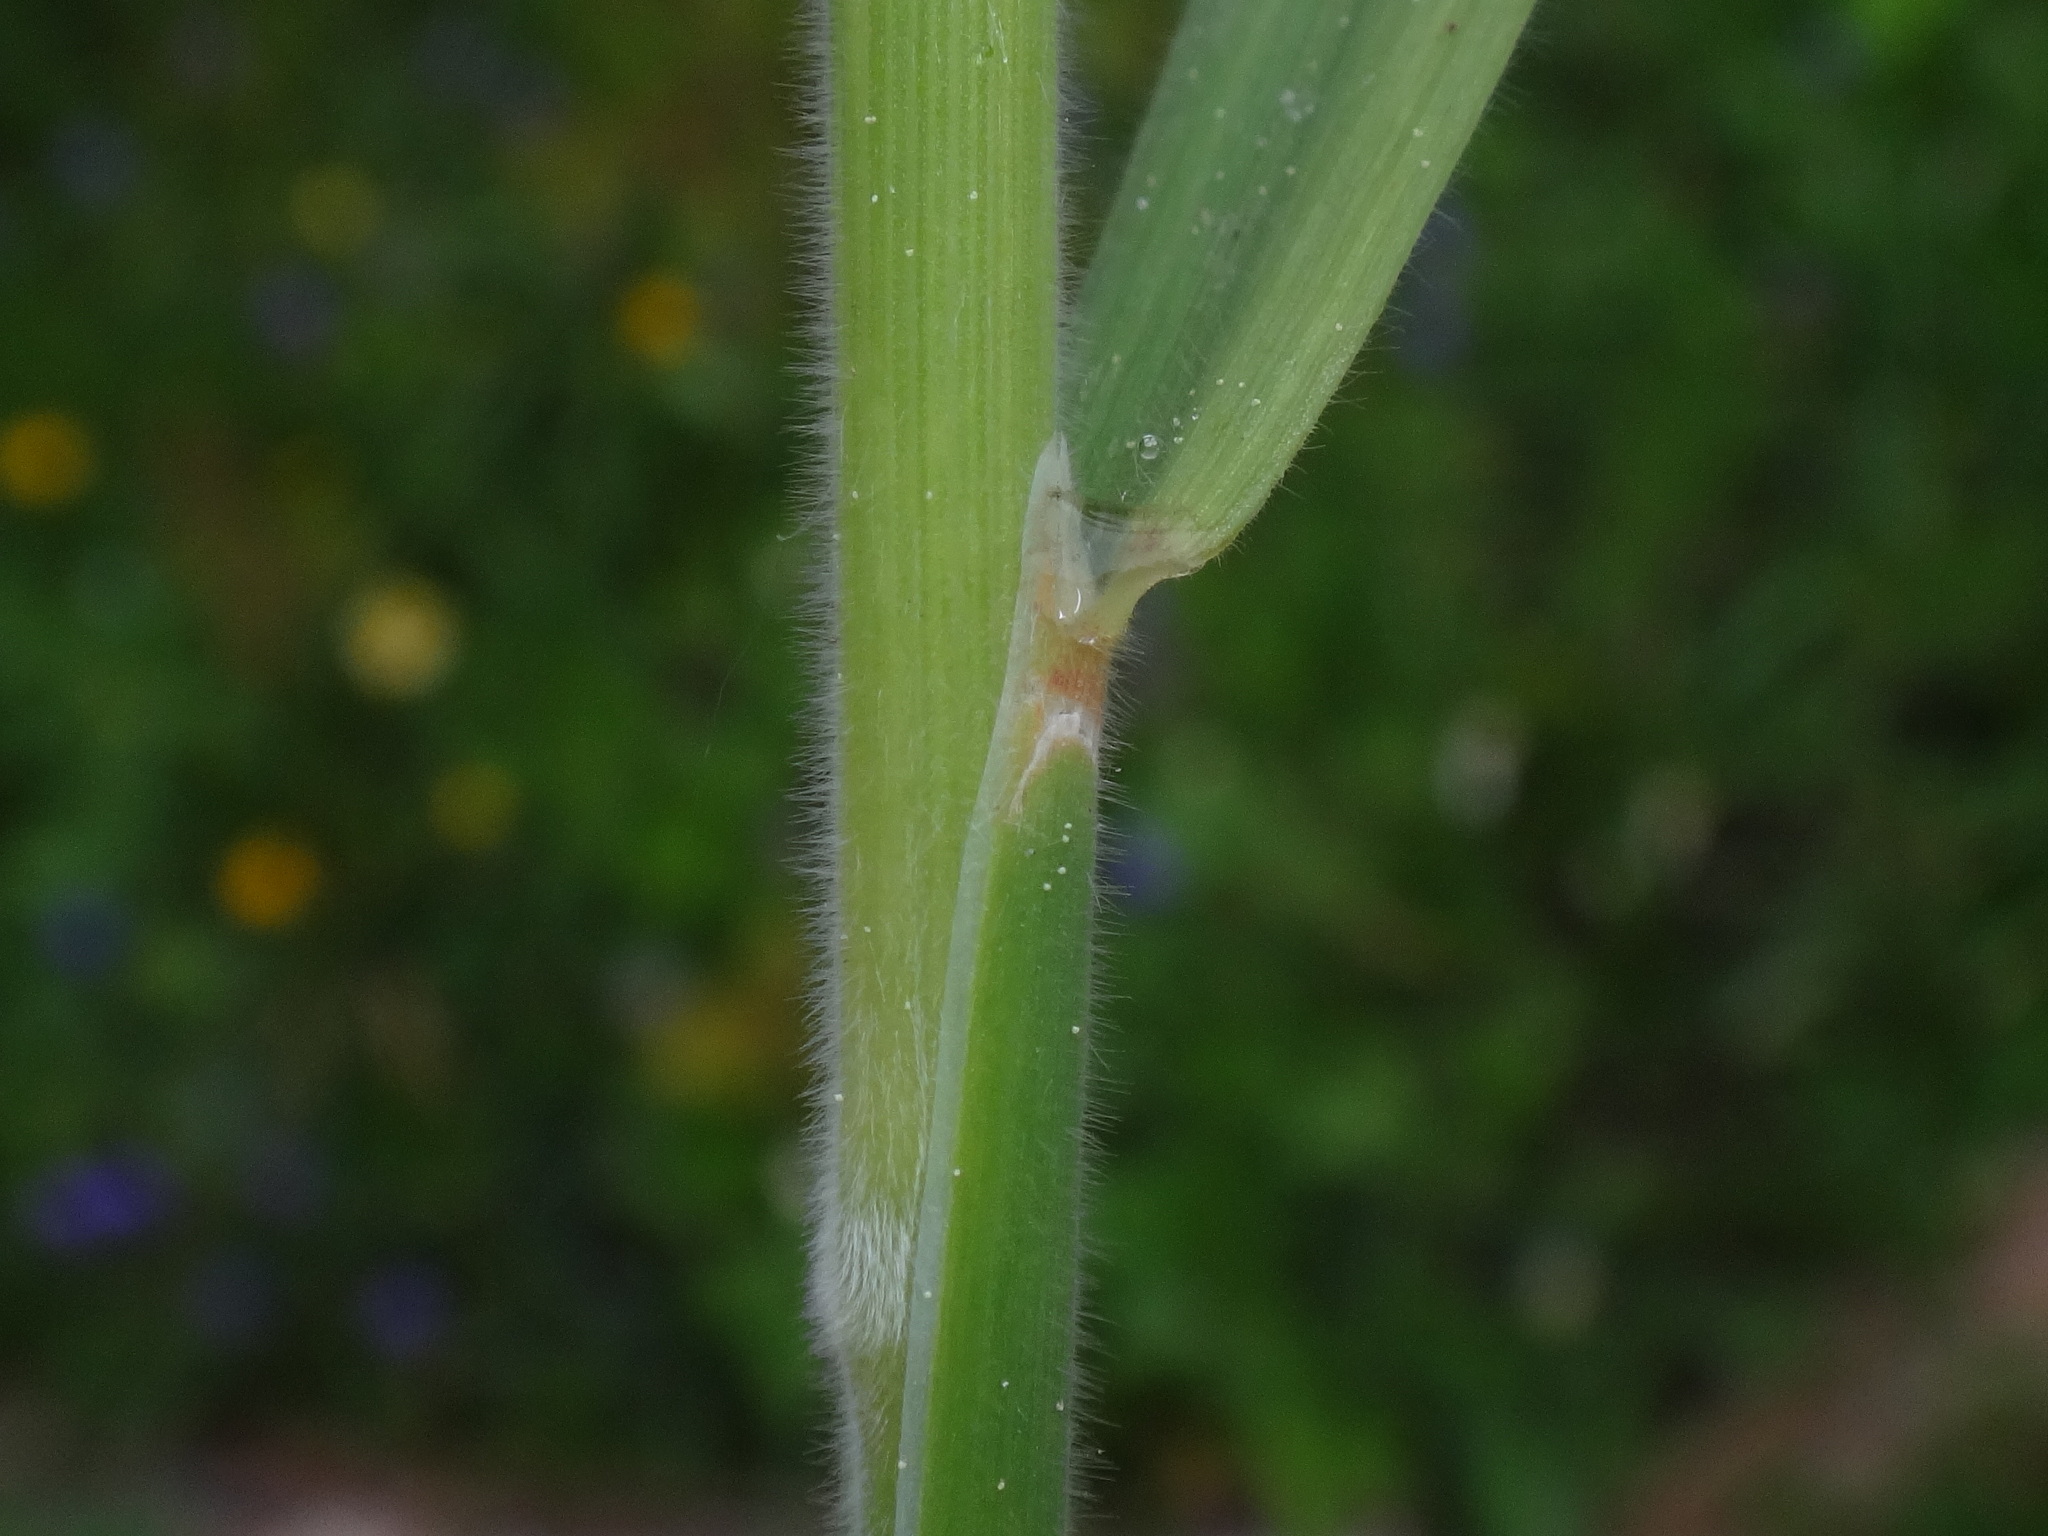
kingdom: Plantae
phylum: Tracheophyta
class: Liliopsida
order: Poales
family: Poaceae
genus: Holcus
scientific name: Holcus lanatus
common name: Yorkshire-fog
